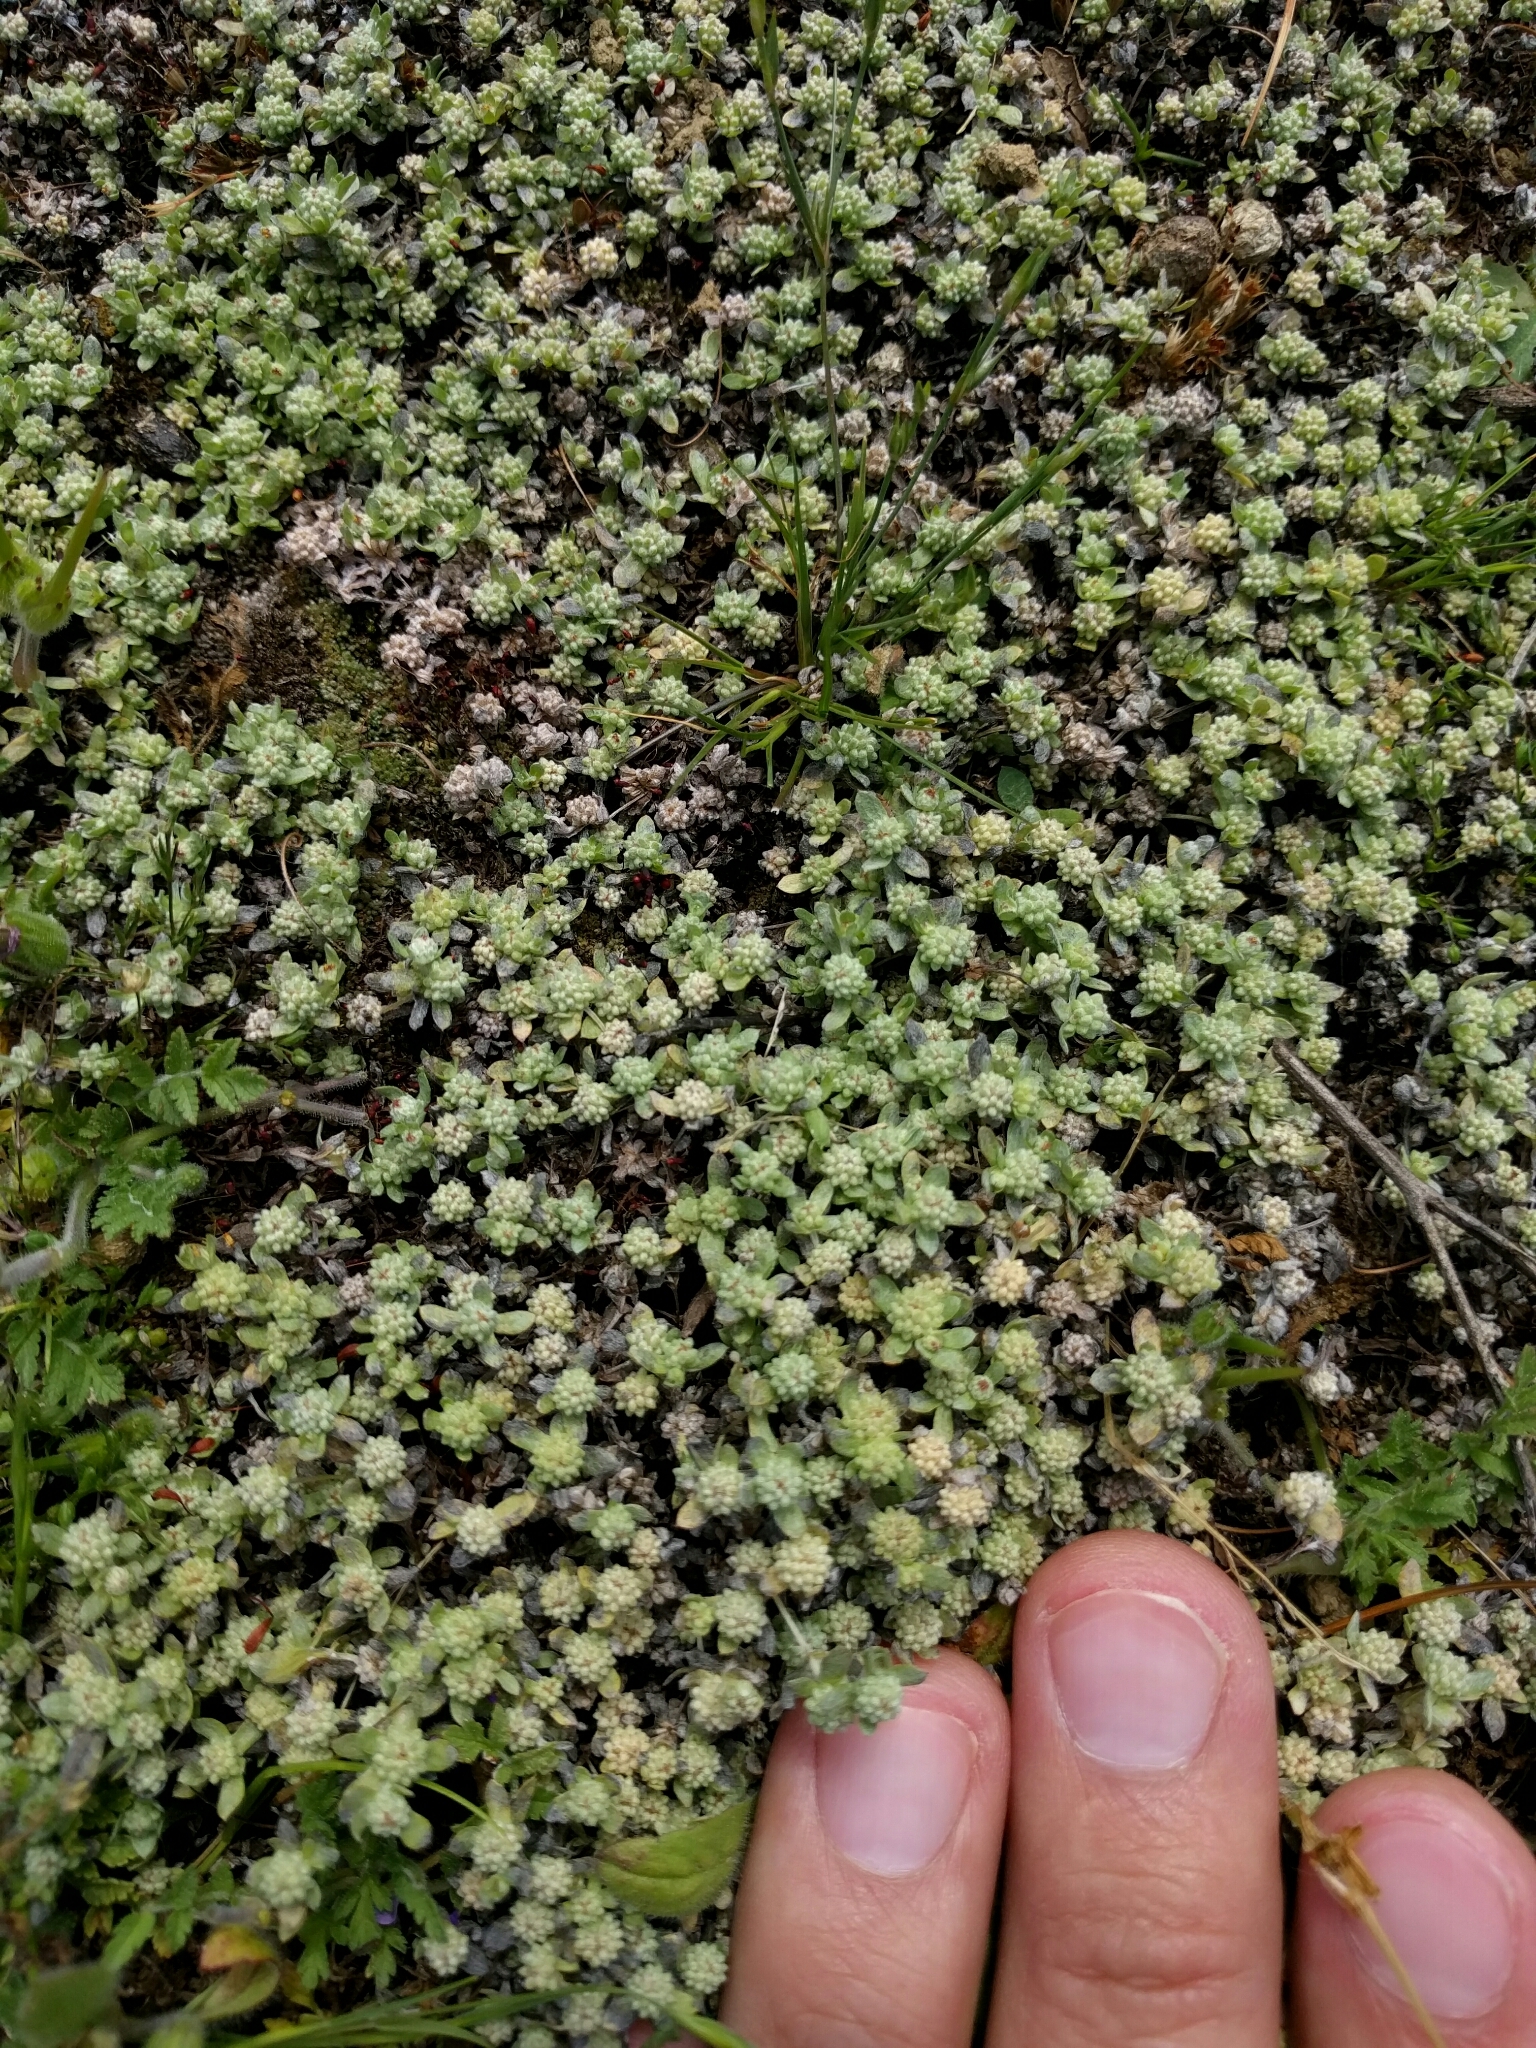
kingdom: Plantae
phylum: Tracheophyta
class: Magnoliopsida
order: Asterales
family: Asteraceae
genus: Psilocarphus
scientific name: Psilocarphus tenellus
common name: Slender woolly-marbles
